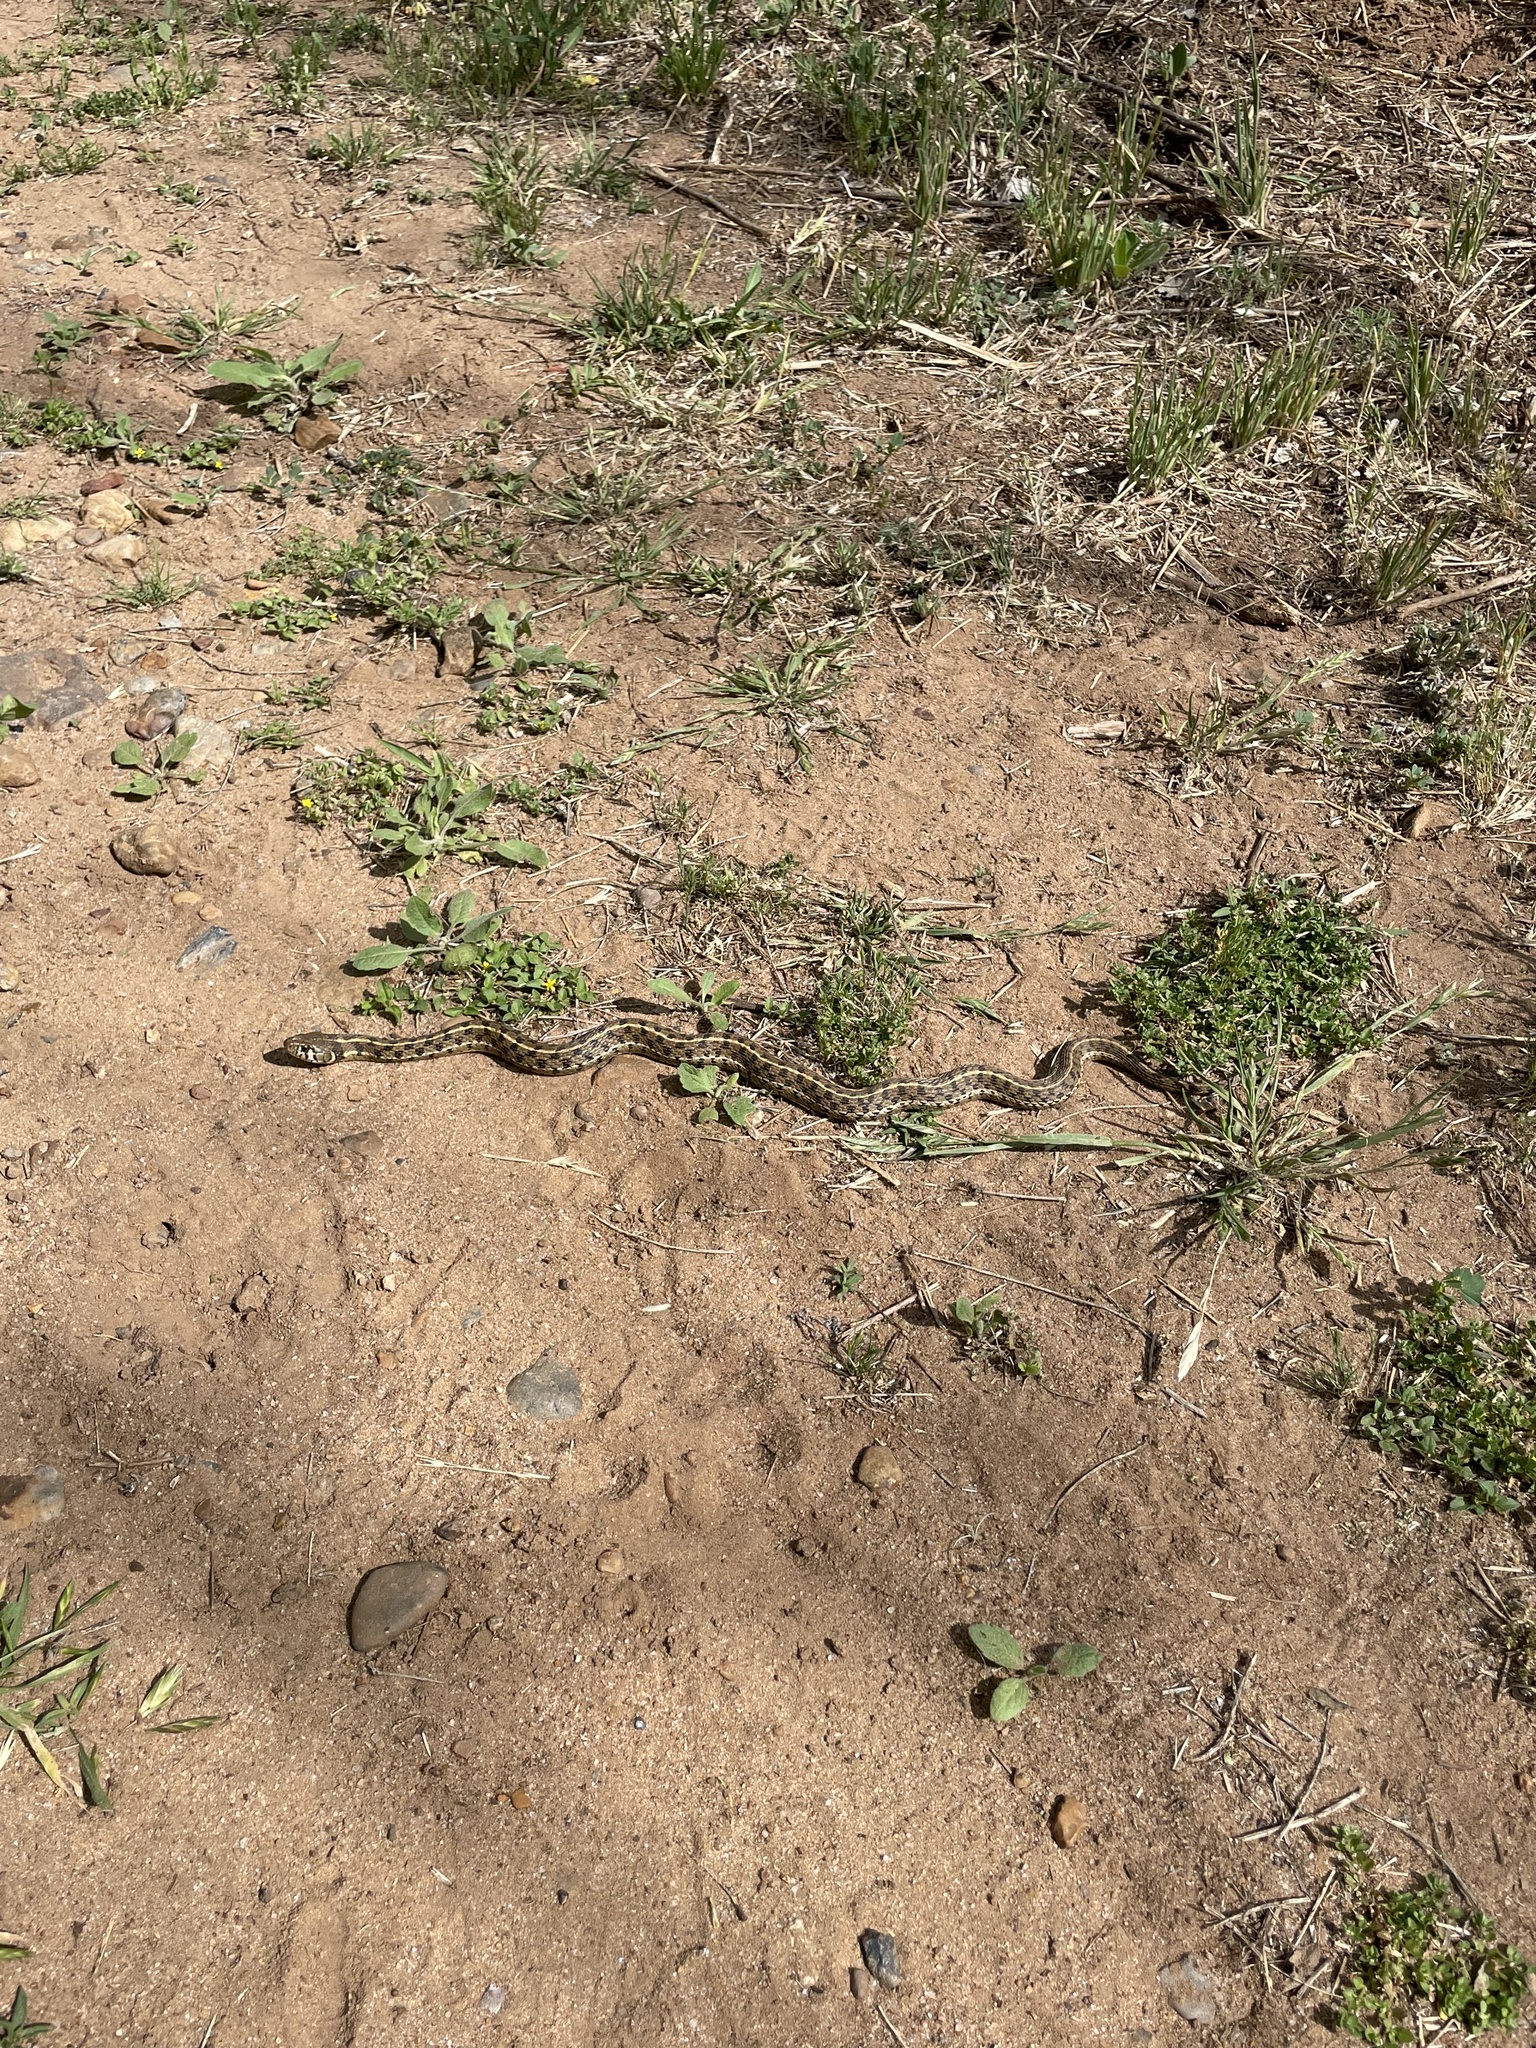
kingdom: Animalia
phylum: Chordata
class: Squamata
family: Colubridae
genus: Thamnophis
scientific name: Thamnophis marcianus
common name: Checkered garter snake
